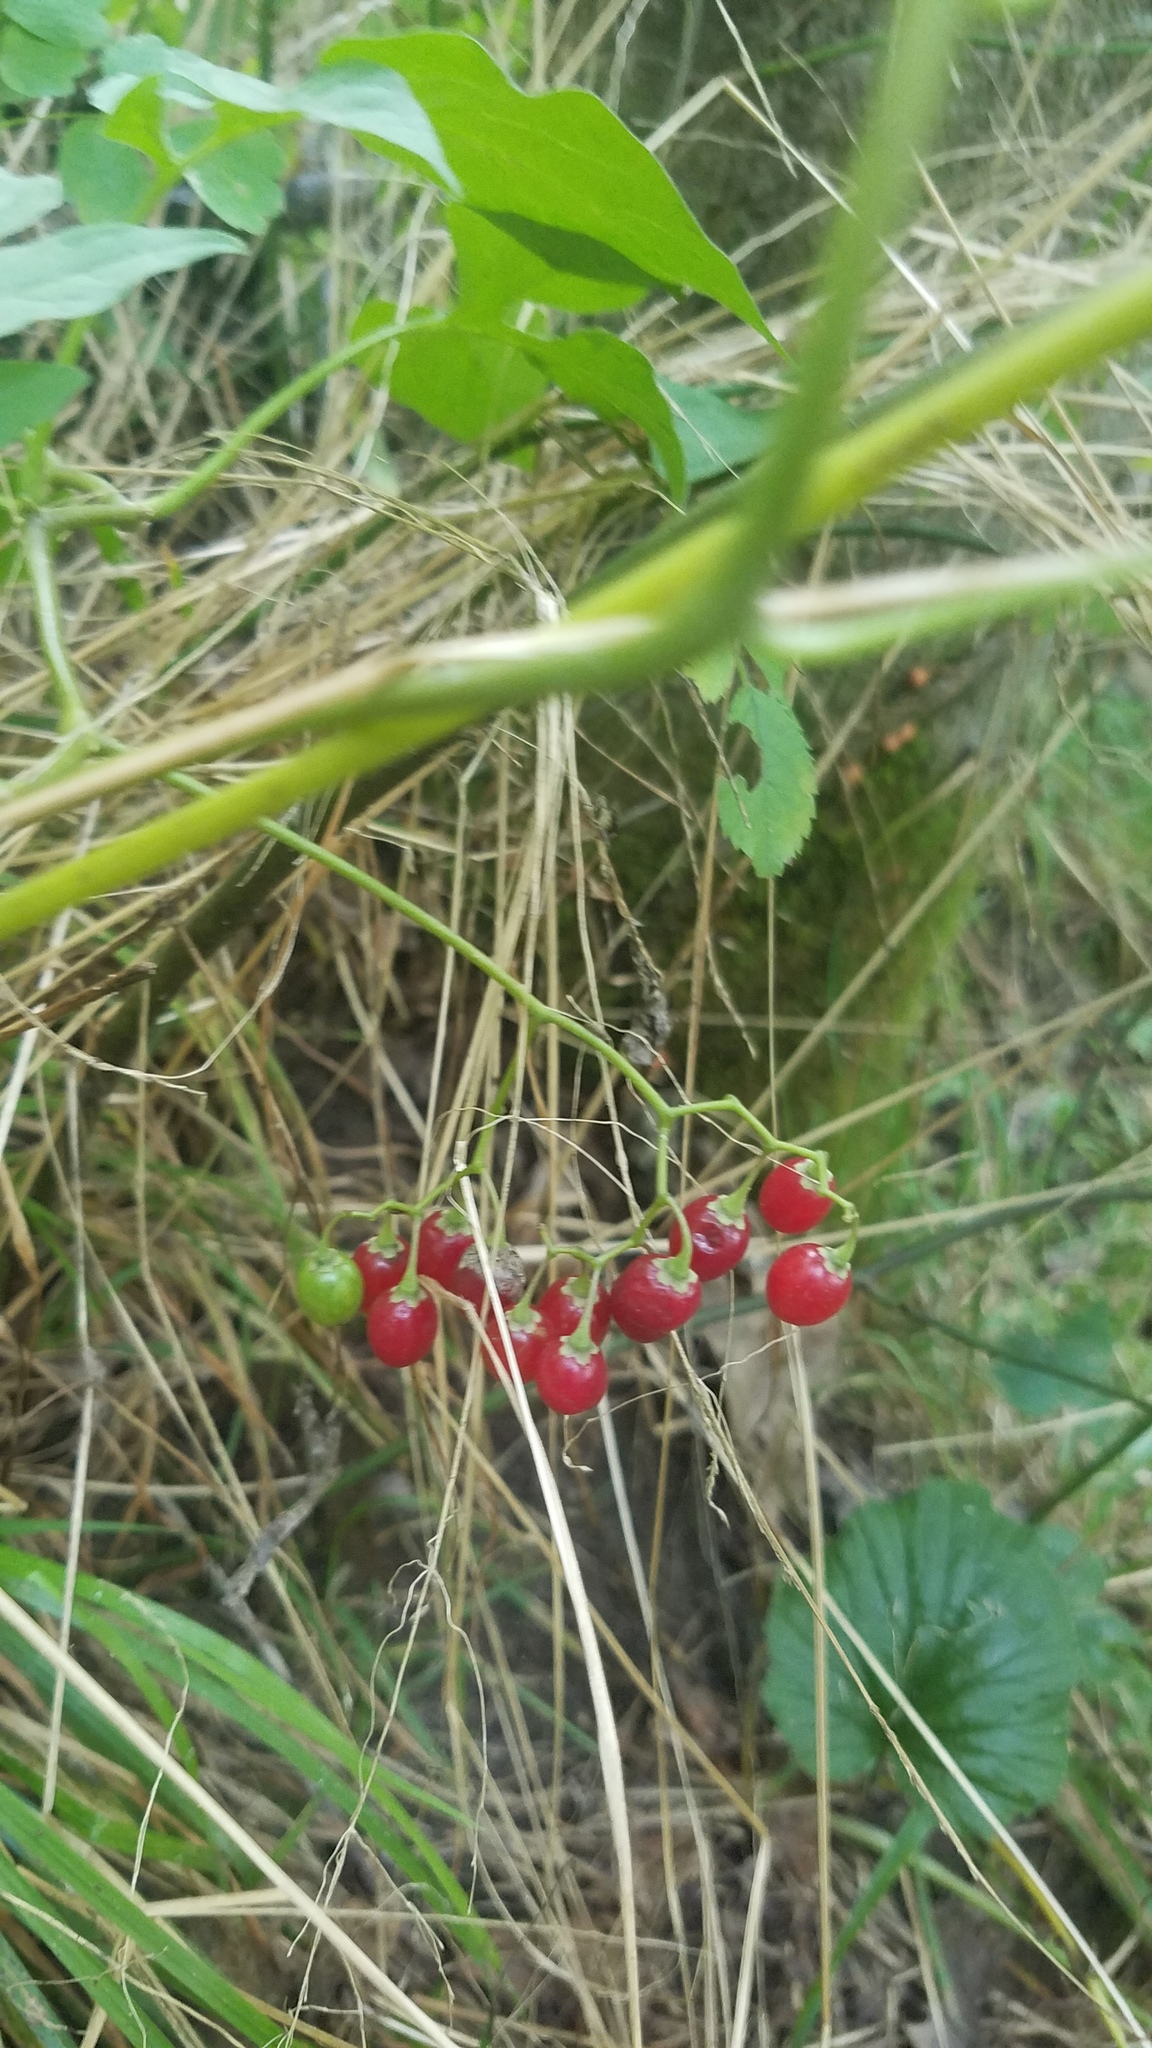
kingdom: Plantae
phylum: Tracheophyta
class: Magnoliopsida
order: Solanales
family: Solanaceae
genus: Solanum
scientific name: Solanum dulcamara
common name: Climbing nightshade
